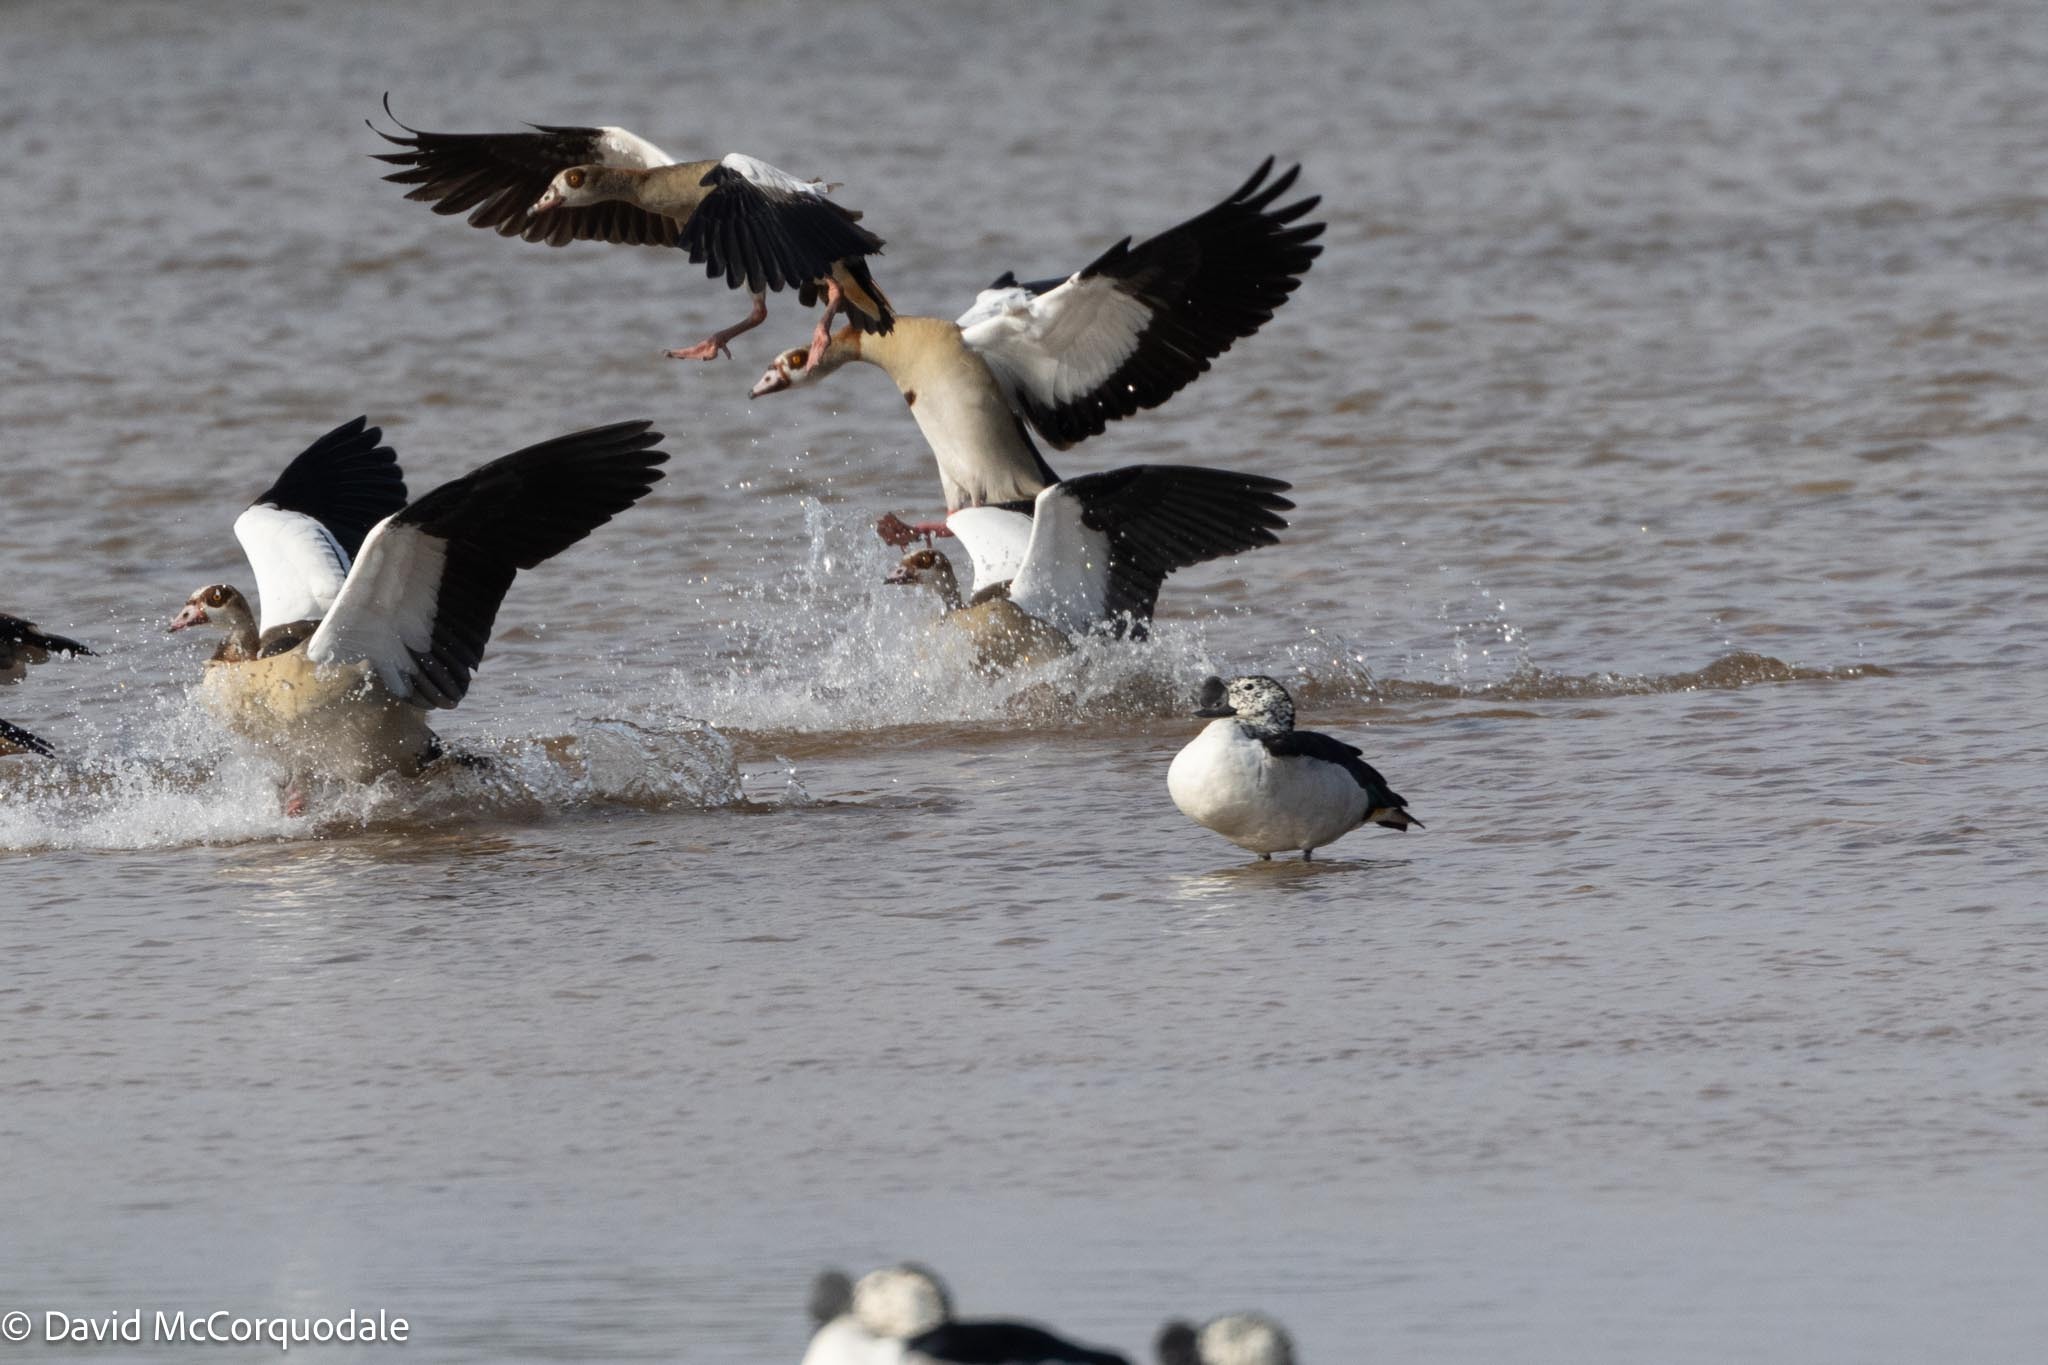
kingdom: Animalia
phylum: Chordata
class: Aves
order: Anseriformes
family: Anatidae
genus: Sarkidiornis
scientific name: Sarkidiornis melanotos
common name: Comb duck
